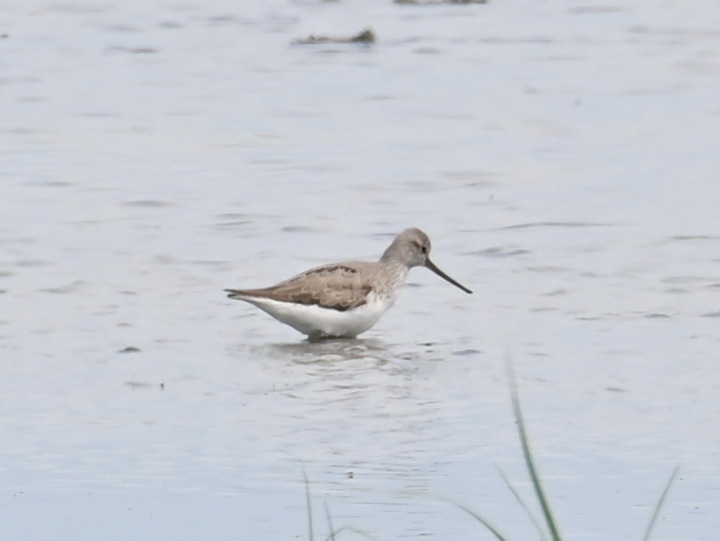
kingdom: Animalia
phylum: Chordata
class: Aves
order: Charadriiformes
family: Scolopacidae
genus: Xenus
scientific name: Xenus cinereus
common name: Terek sandpiper
